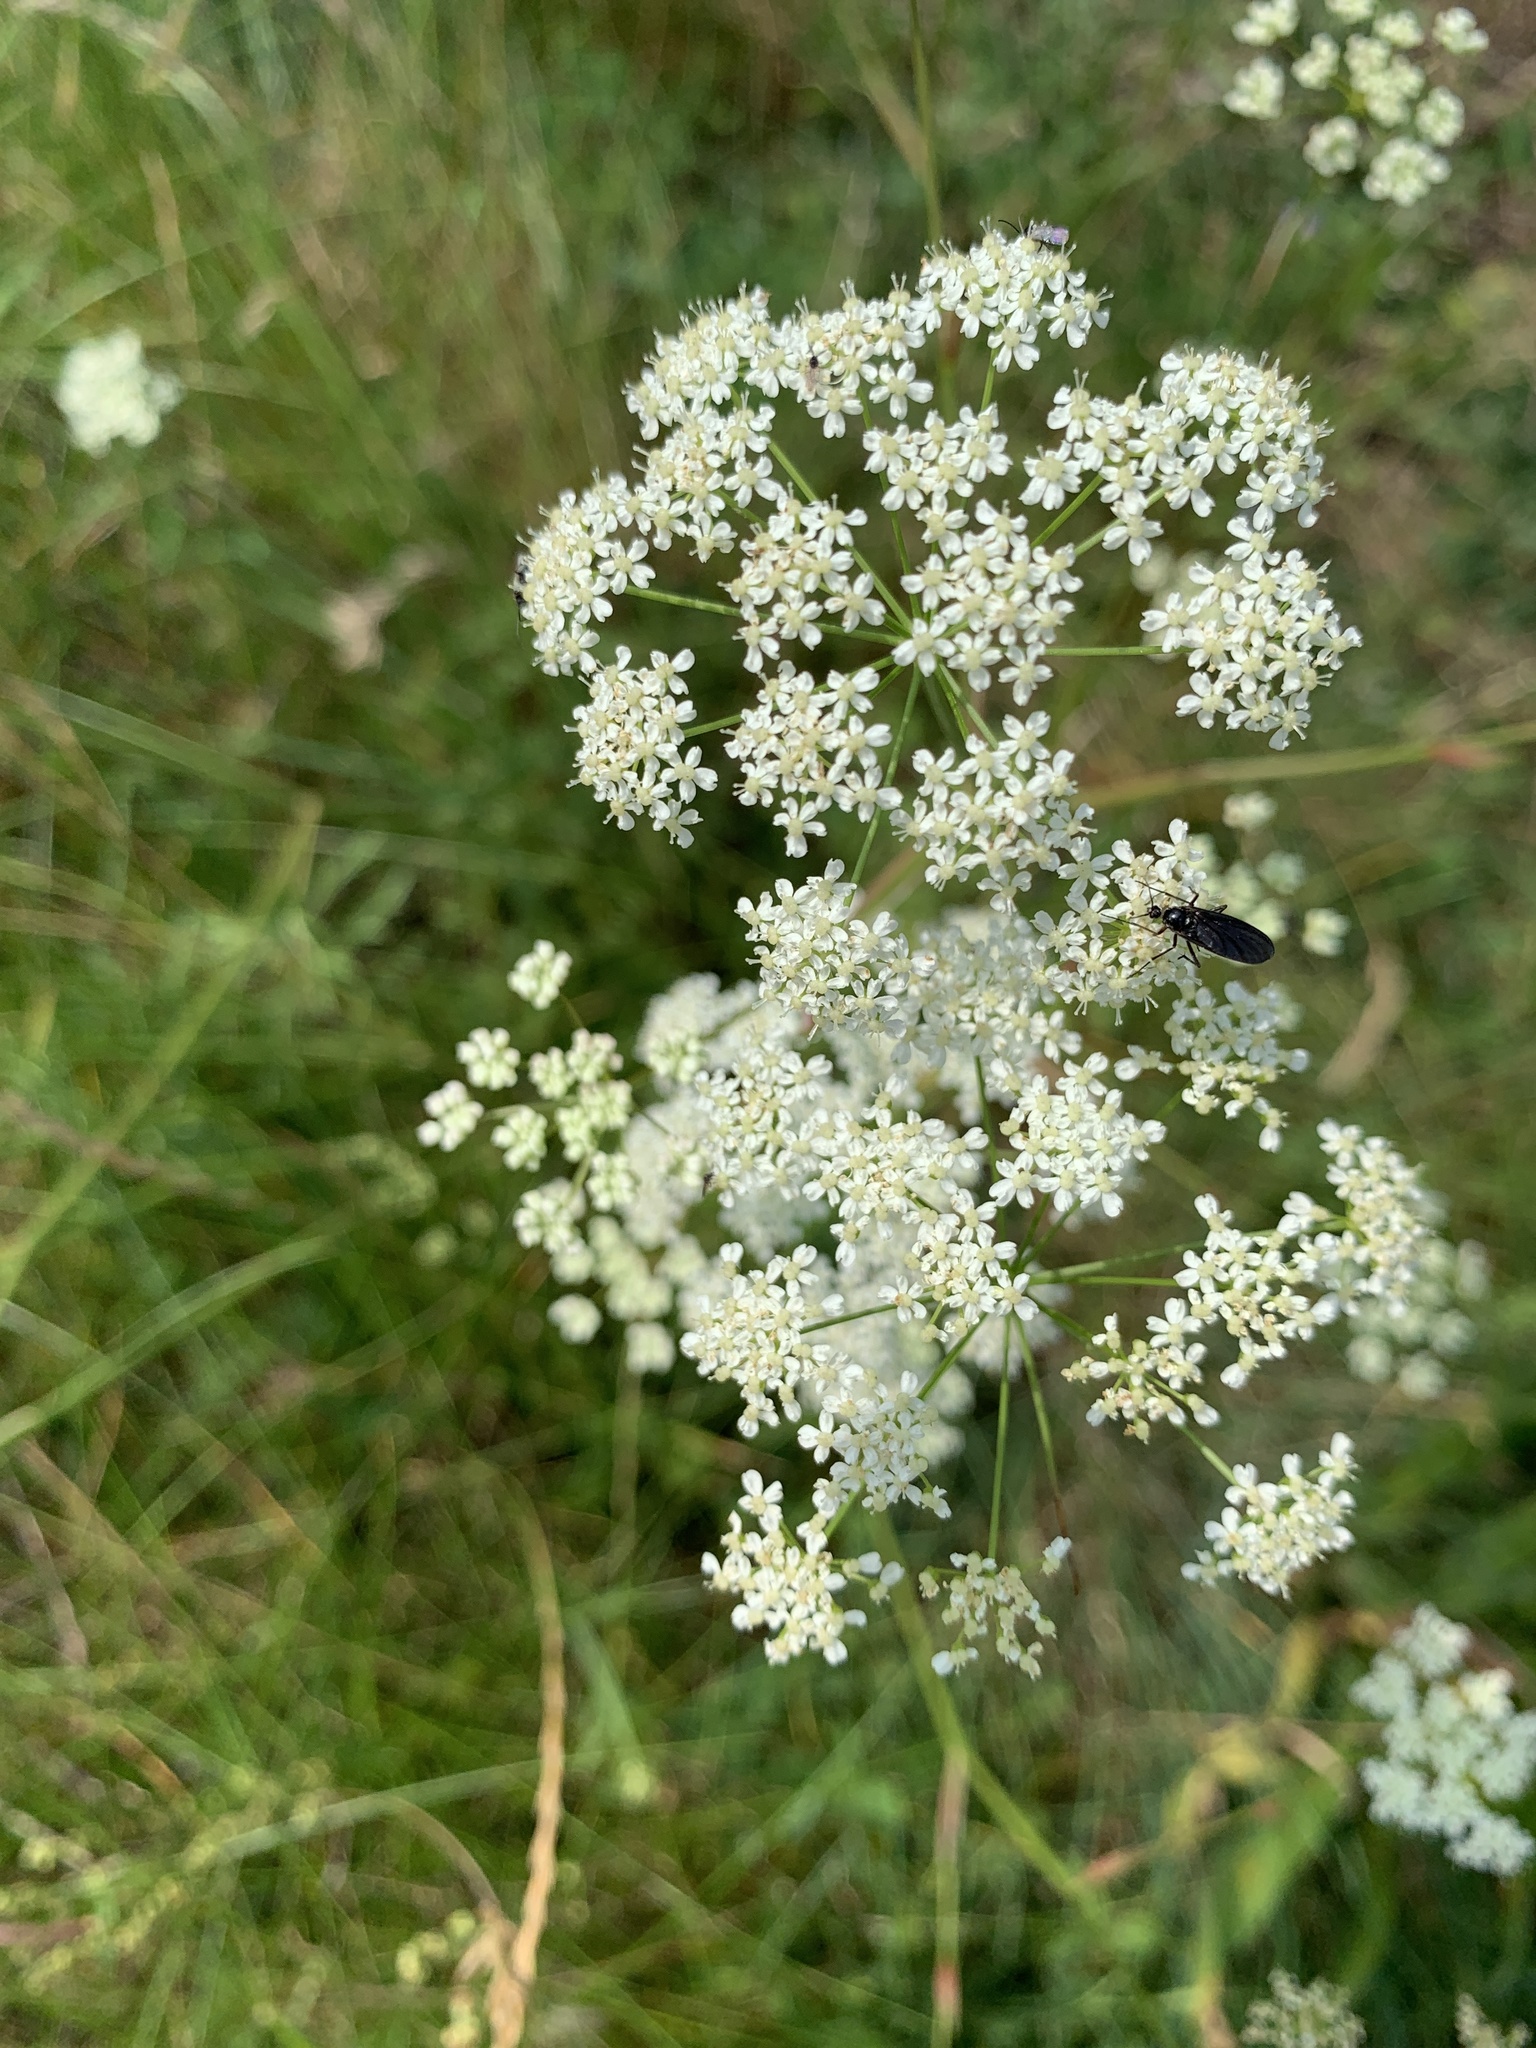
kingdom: Plantae
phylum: Tracheophyta
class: Magnoliopsida
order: Apiales
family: Apiaceae
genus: Daucus
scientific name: Daucus carota
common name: Wild carrot
